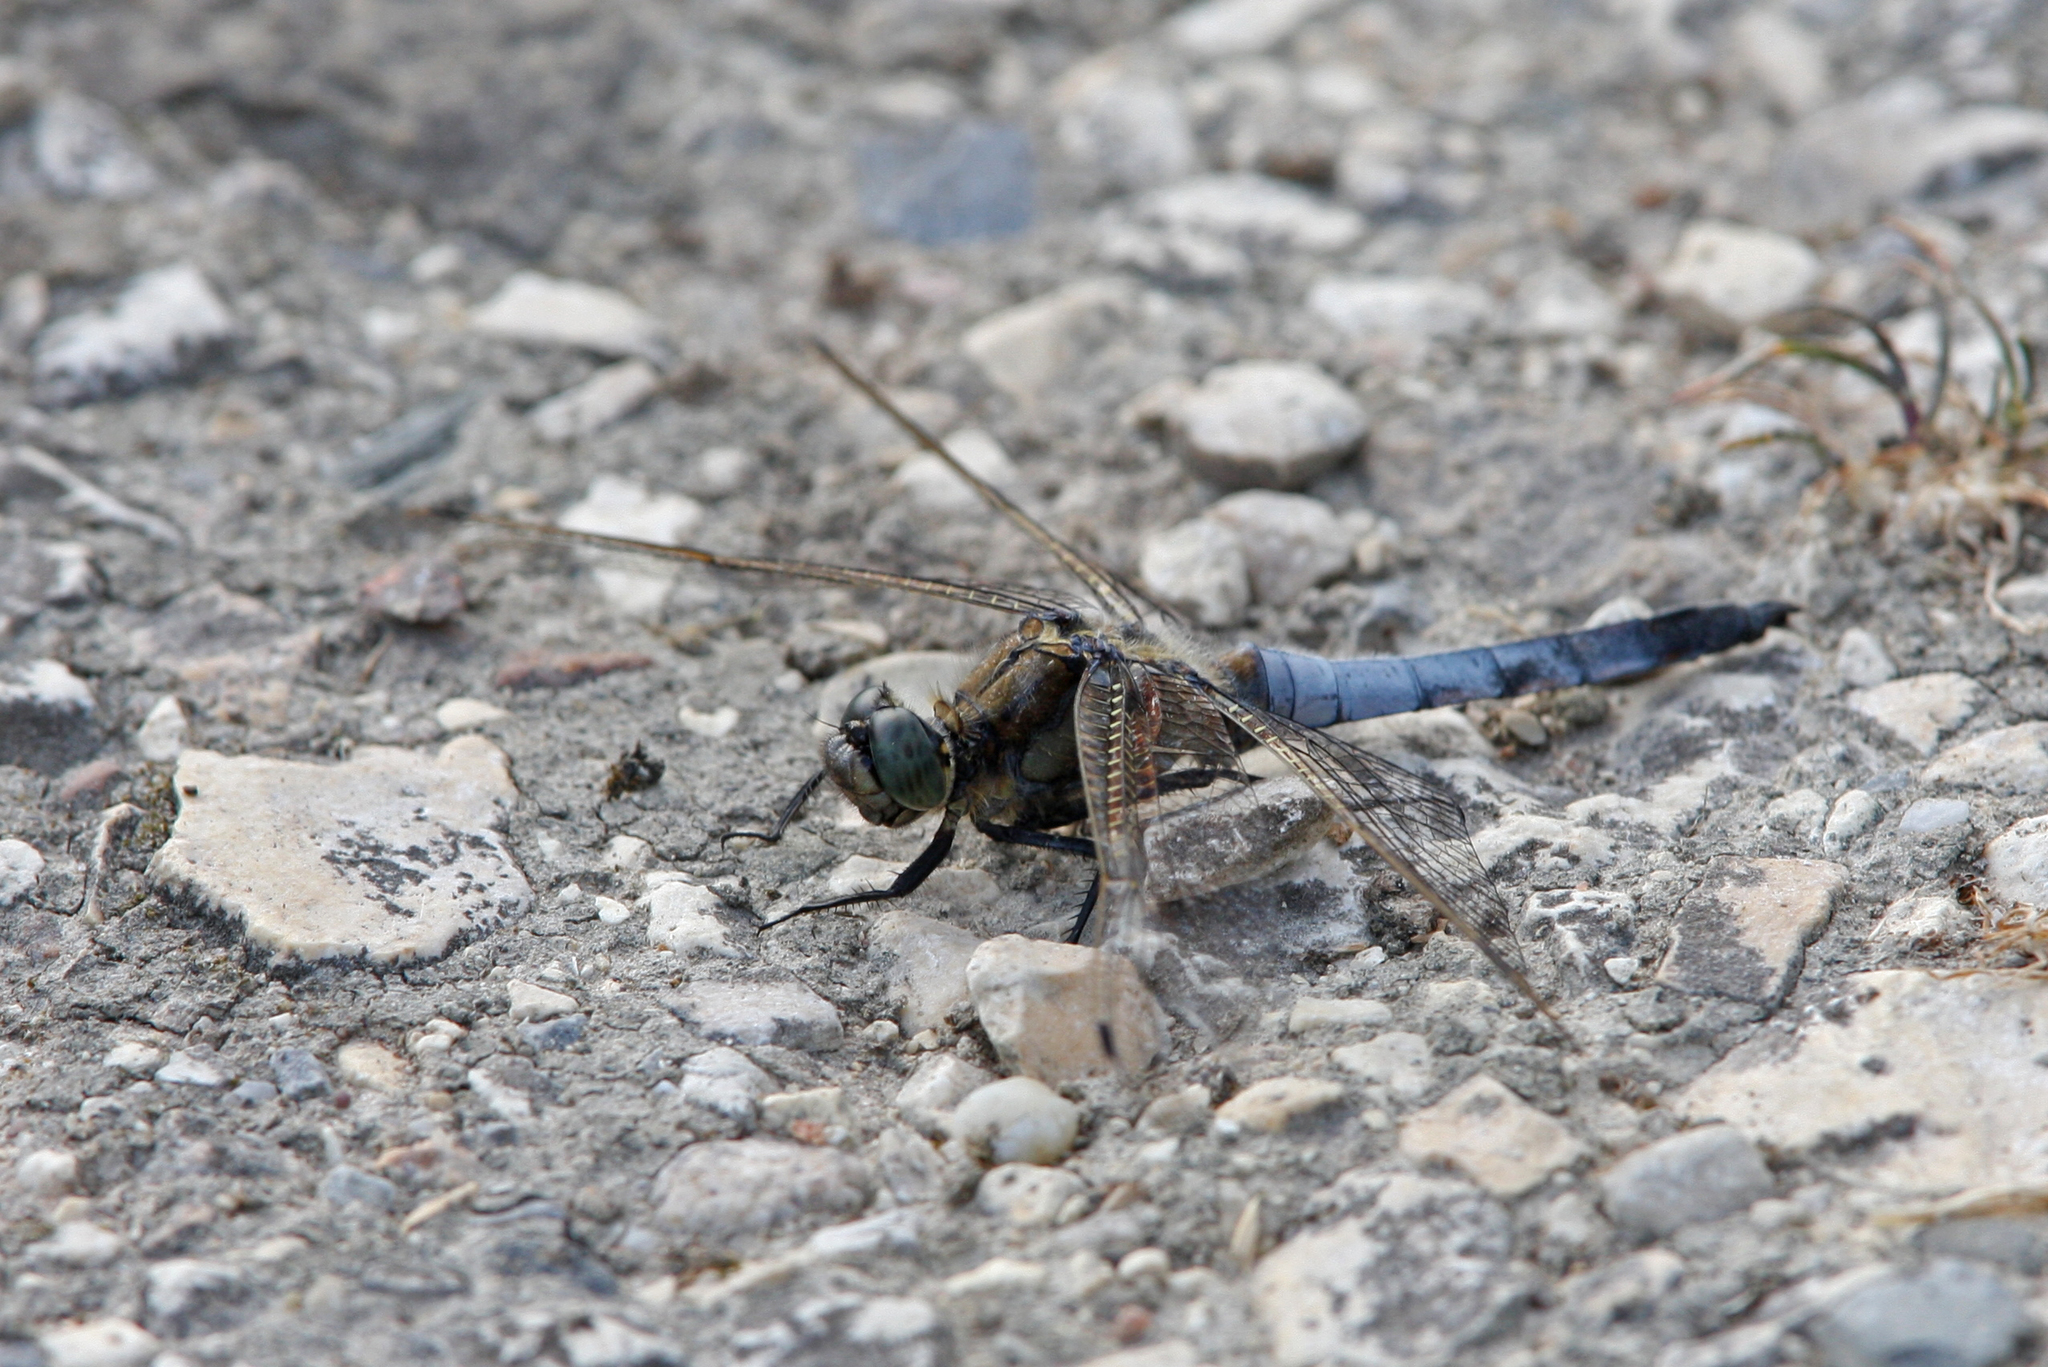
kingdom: Animalia
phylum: Arthropoda
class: Insecta
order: Odonata
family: Libellulidae
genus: Orthetrum
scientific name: Orthetrum cancellatum
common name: Black-tailed skimmer
